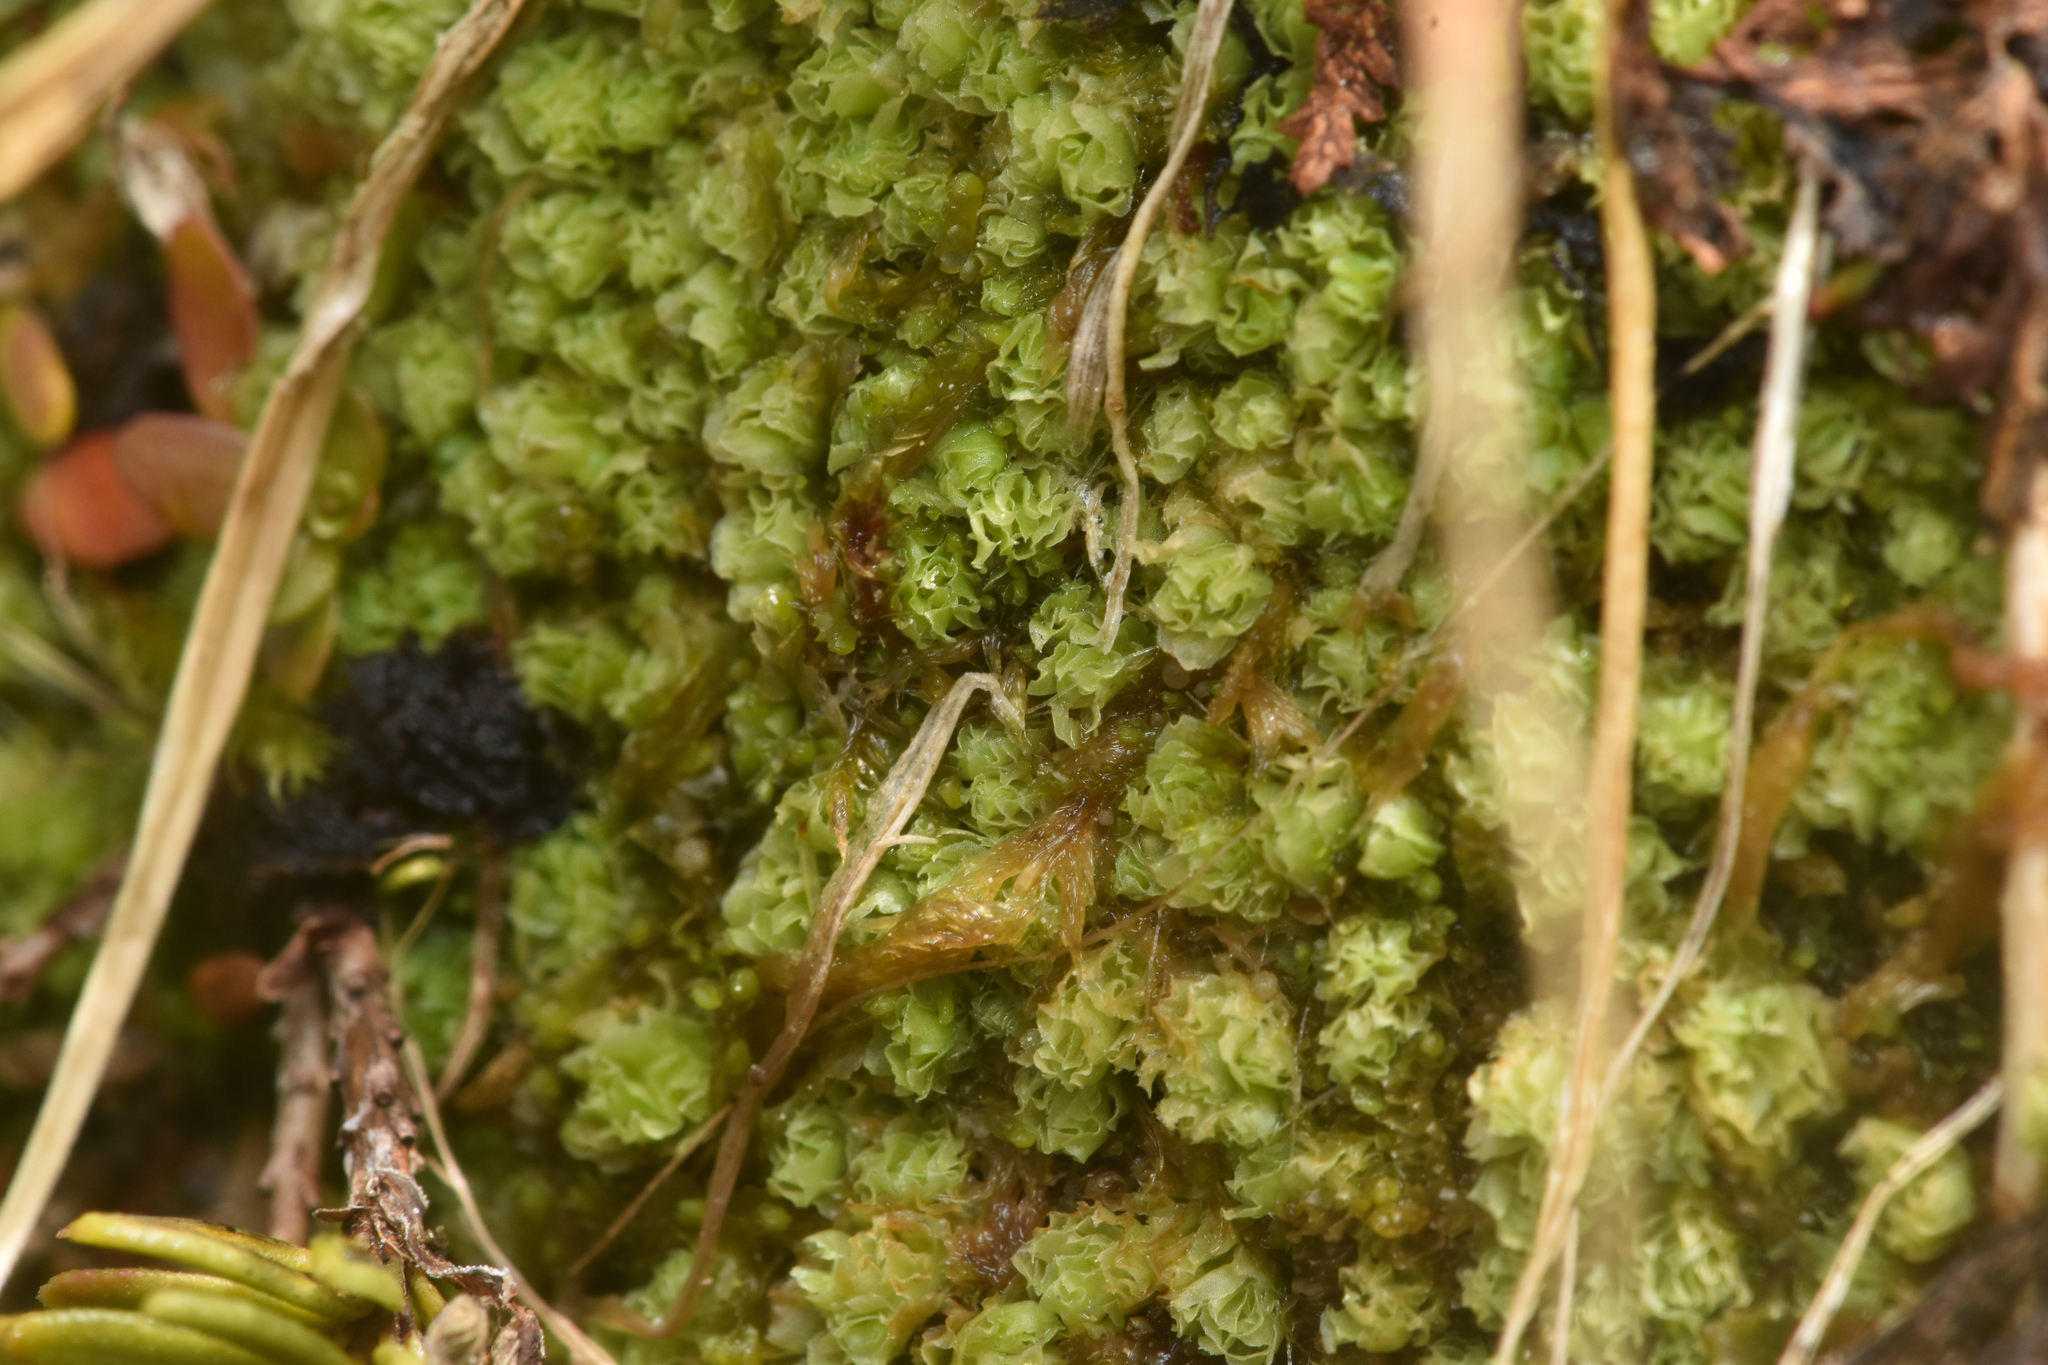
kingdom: Plantae
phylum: Marchantiophyta
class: Jungermanniopsida
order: Jungermanniales
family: Scapaniaceae
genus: Schistochilopsis
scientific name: Schistochilopsis opacifolia
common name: Alpine jagged notchwort
